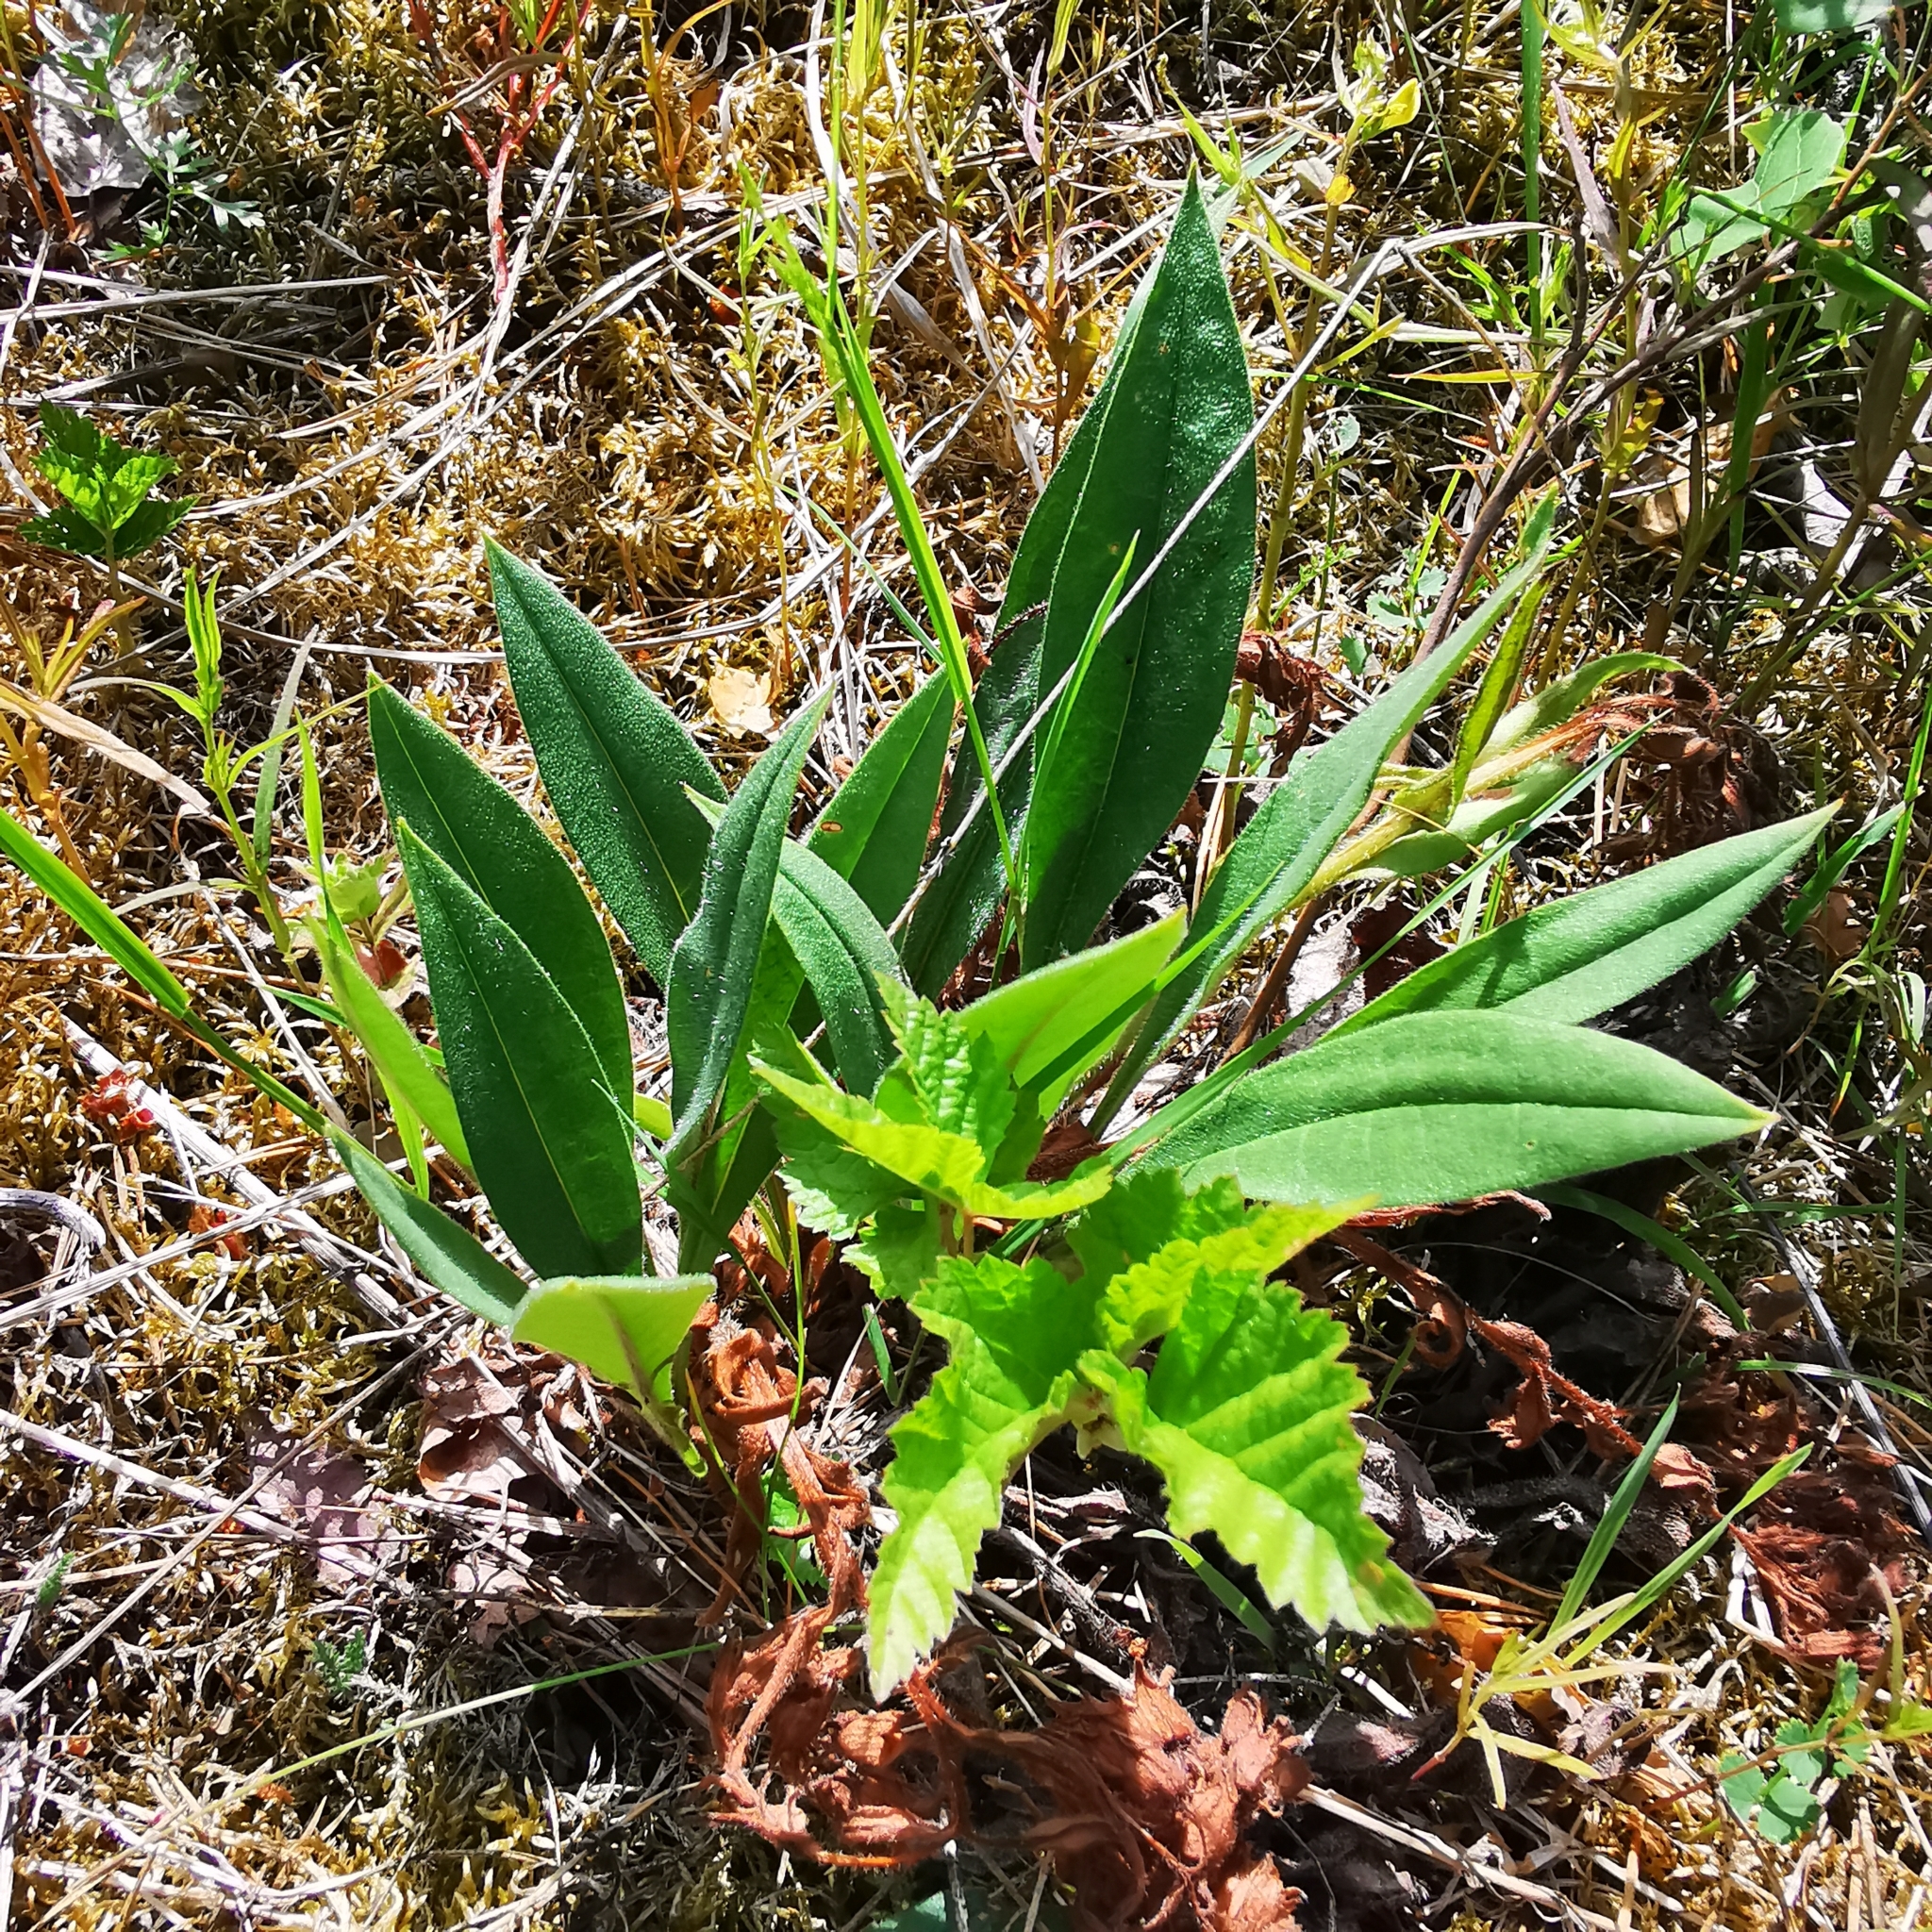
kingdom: Plantae
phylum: Tracheophyta
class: Magnoliopsida
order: Boraginales
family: Boraginaceae
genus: Pulmonaria
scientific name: Pulmonaria angustifolia
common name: Blue cowslip
